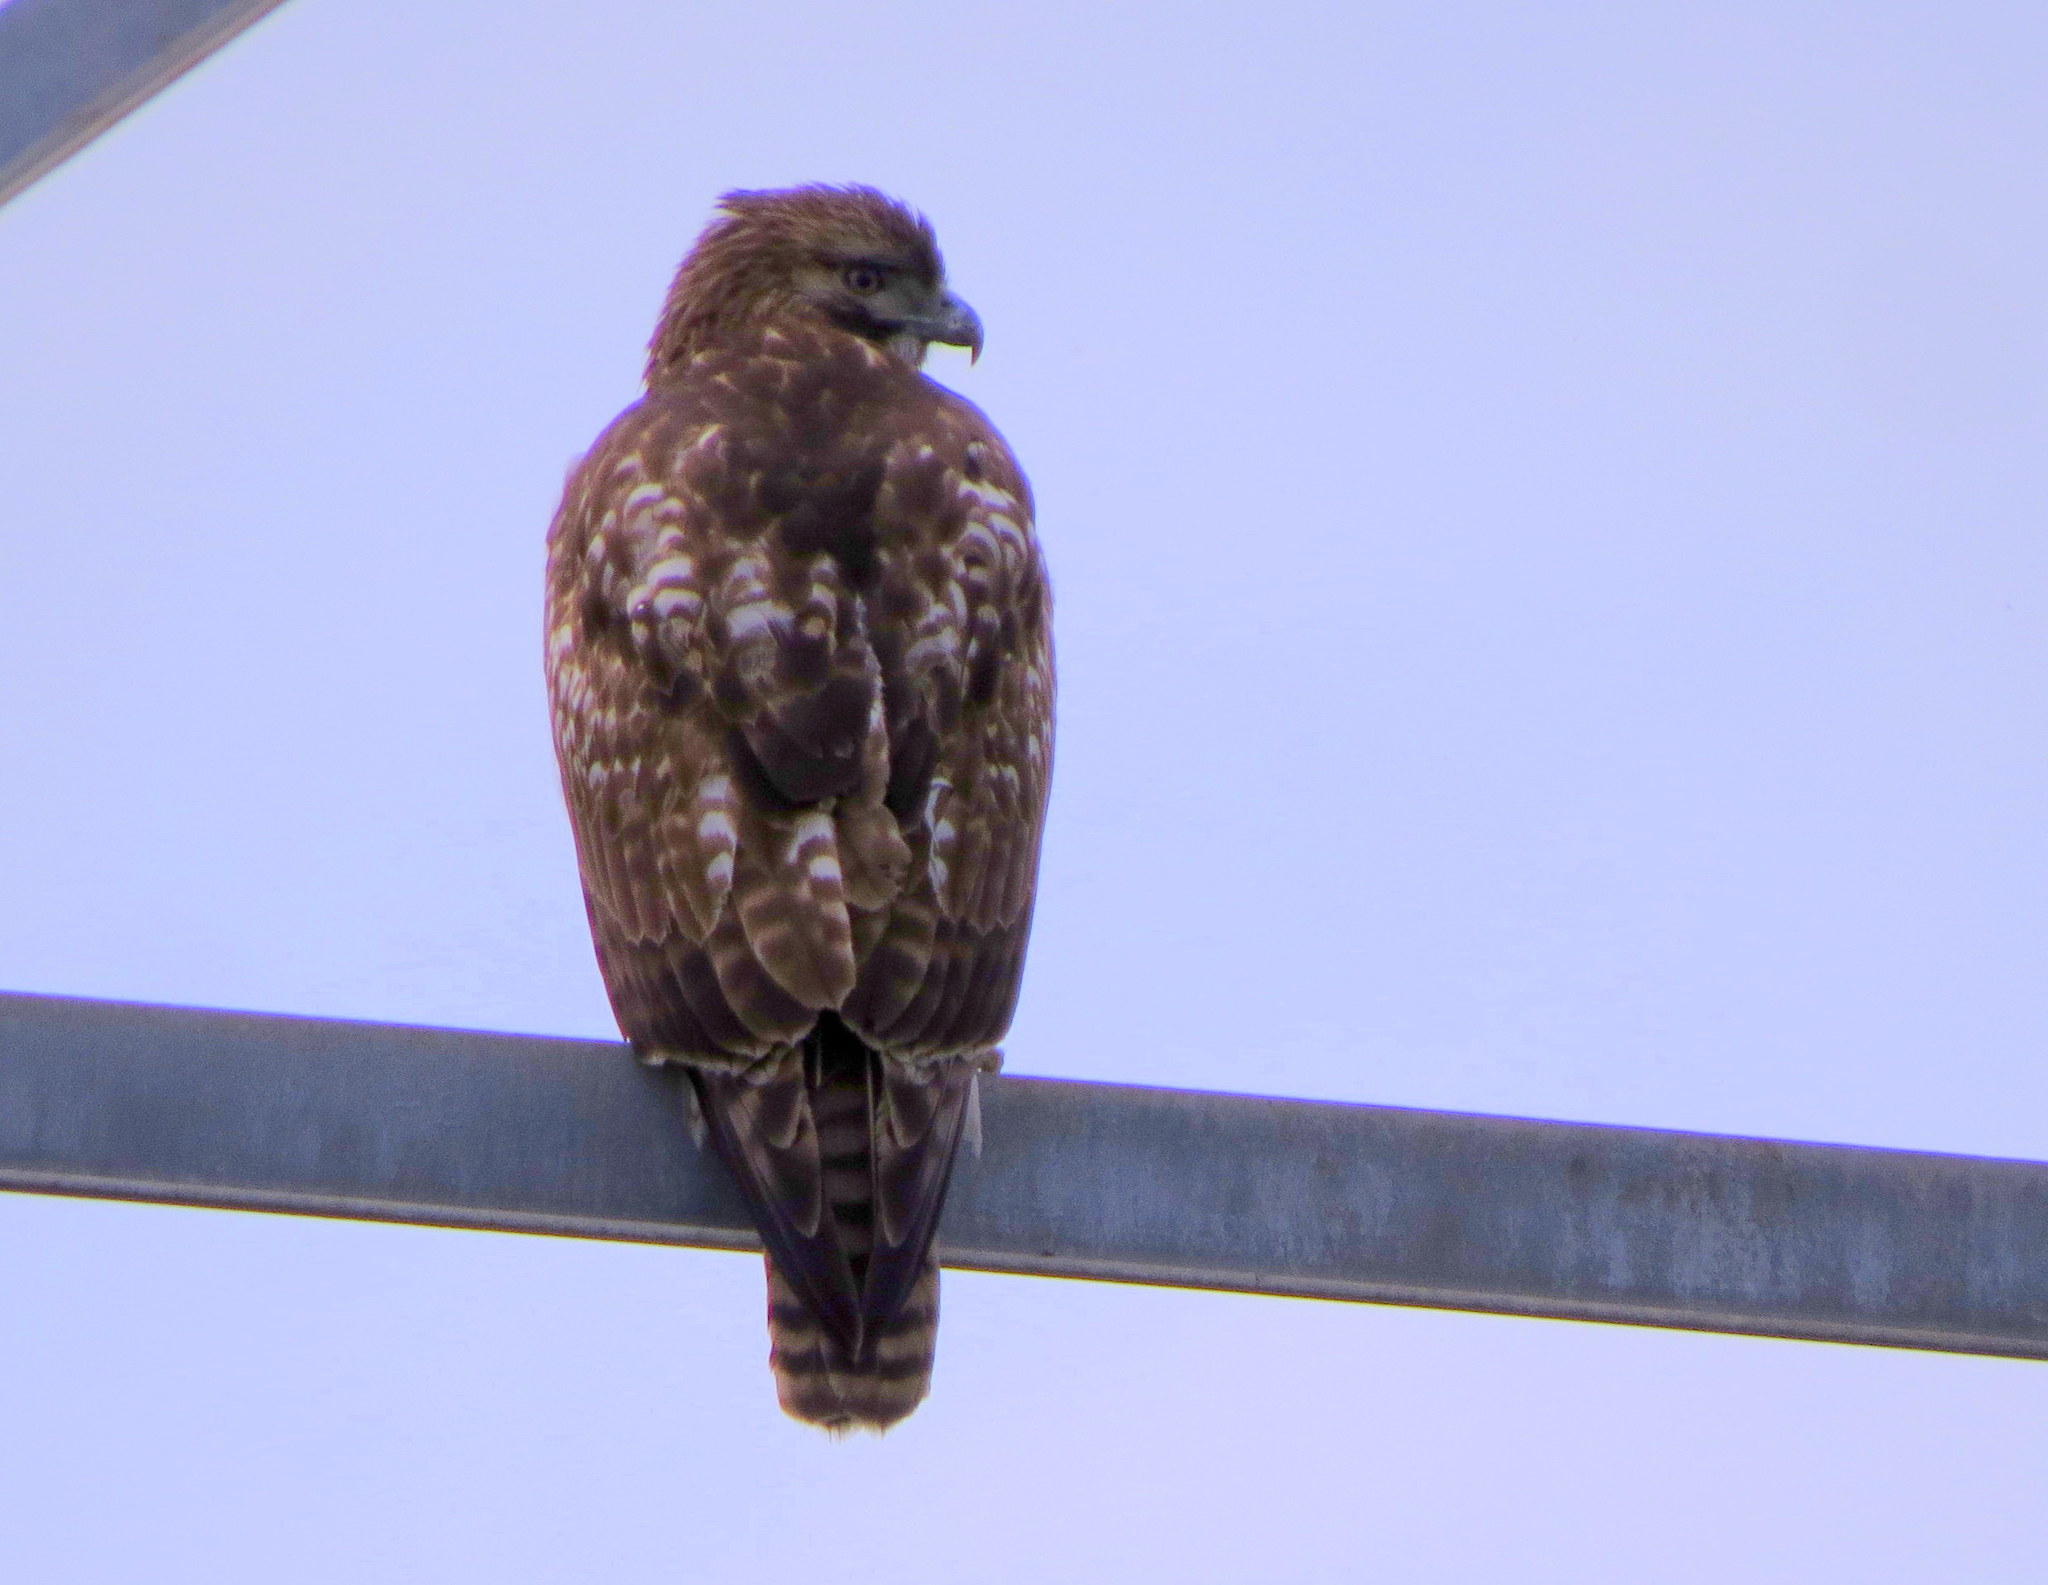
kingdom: Animalia
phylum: Chordata
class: Aves
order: Accipitriformes
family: Accipitridae
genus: Buteo
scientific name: Buteo jamaicensis
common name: Red-tailed hawk
